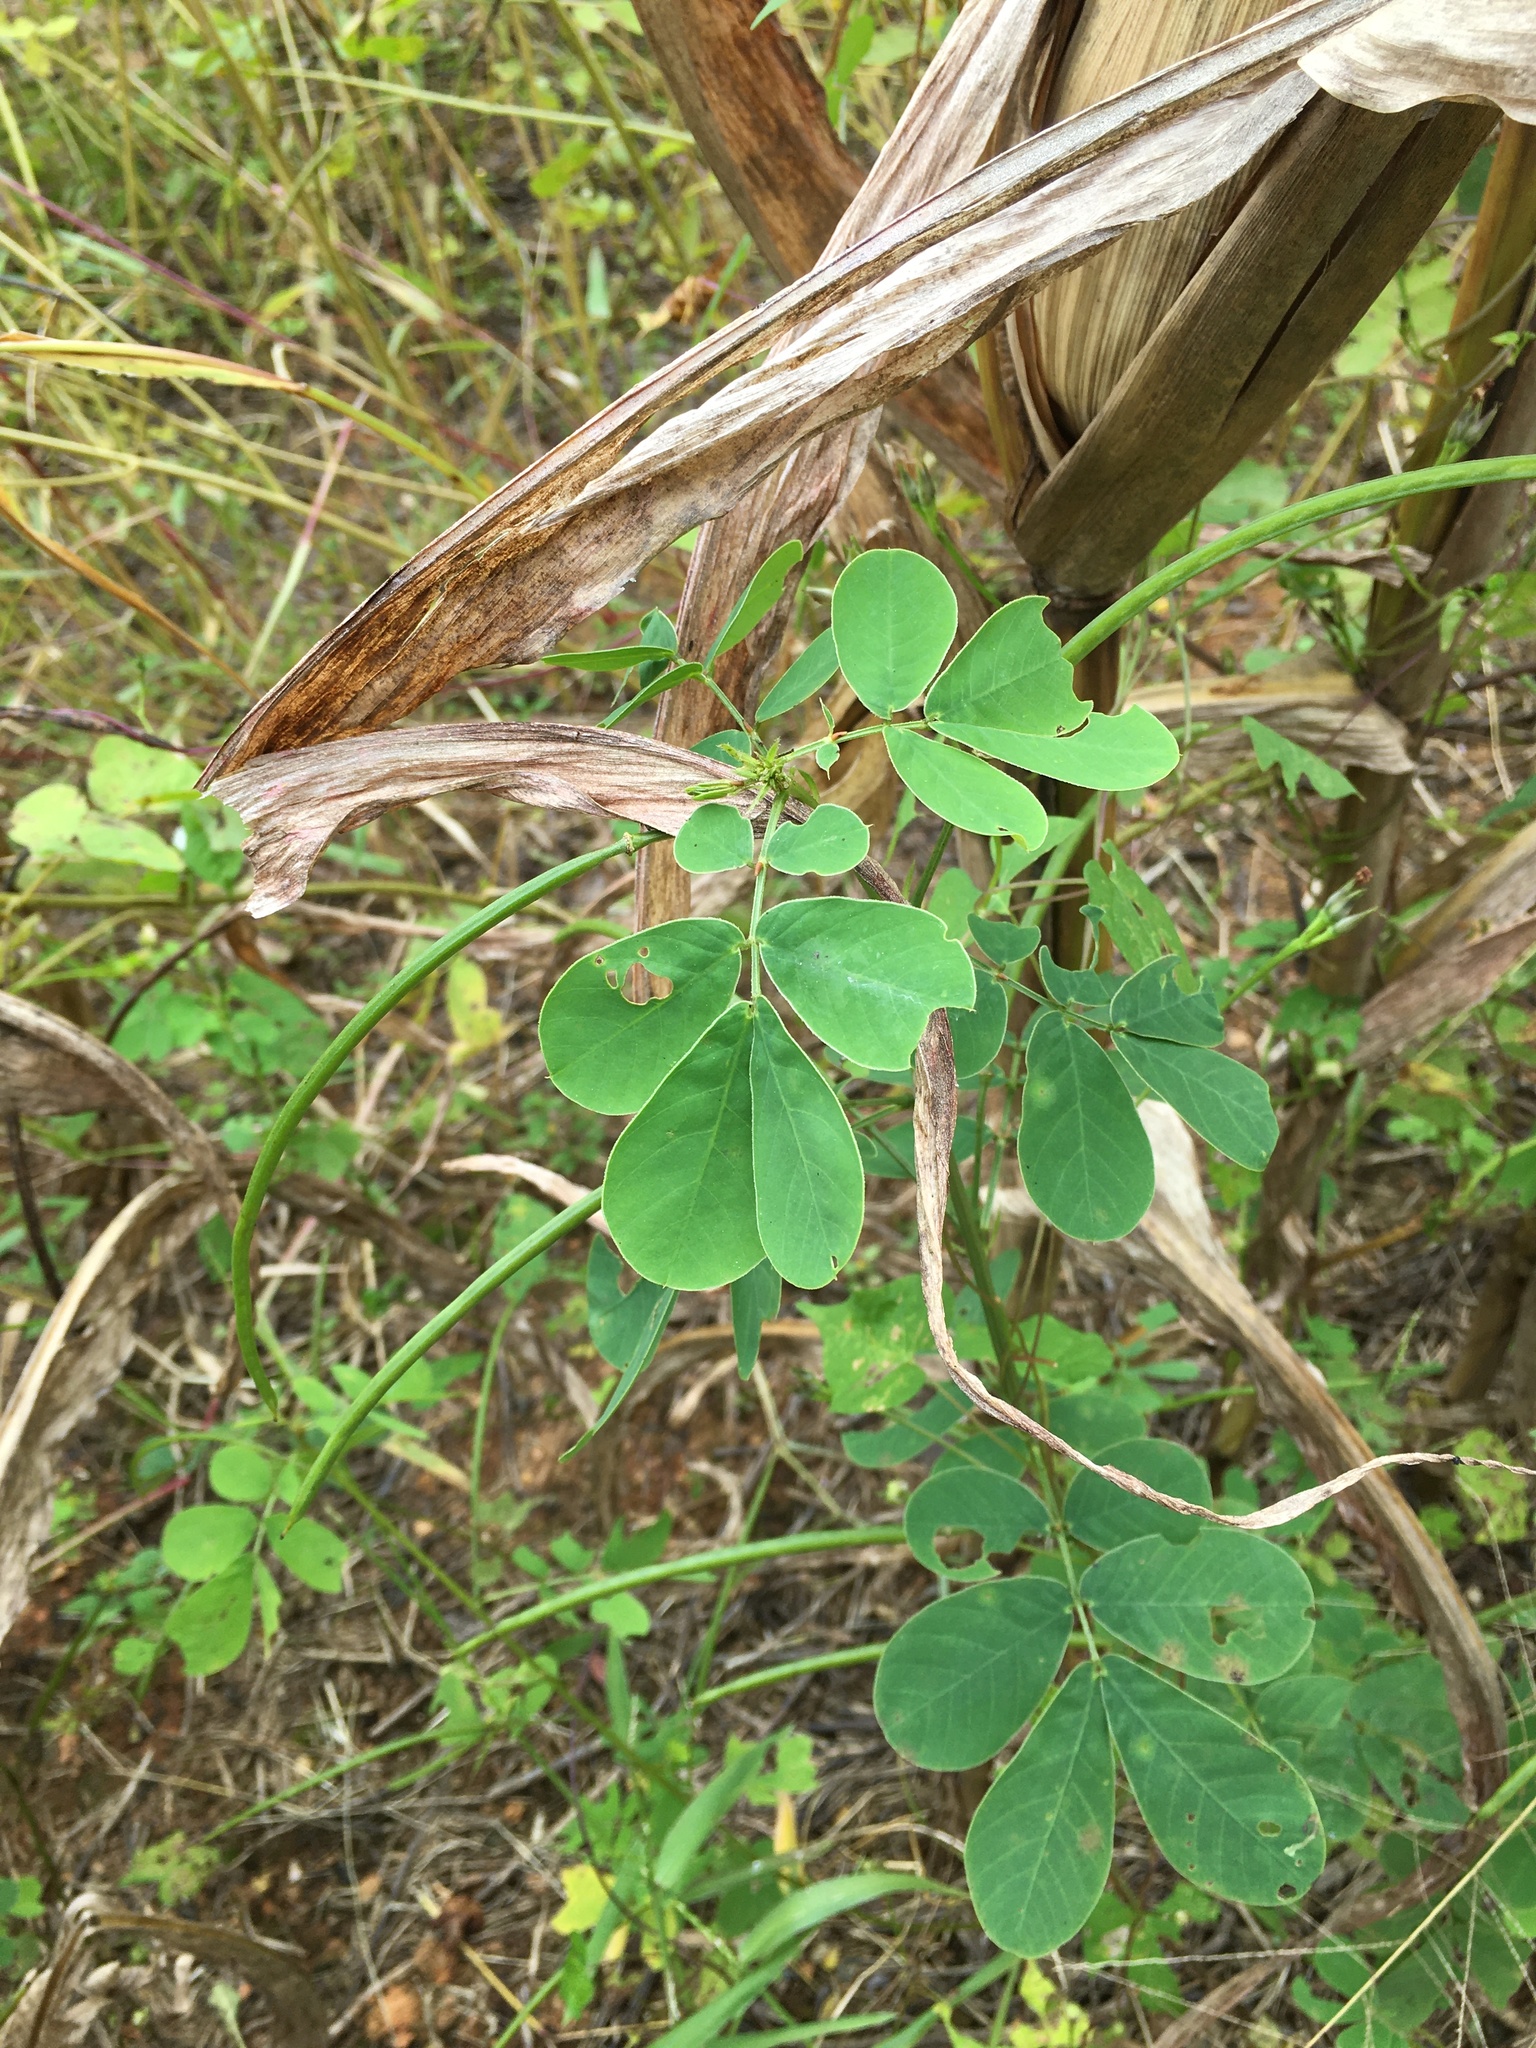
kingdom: Plantae
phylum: Tracheophyta
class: Magnoliopsida
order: Fabales
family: Fabaceae
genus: Senna
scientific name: Senna obtusifolia
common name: Java-bean
